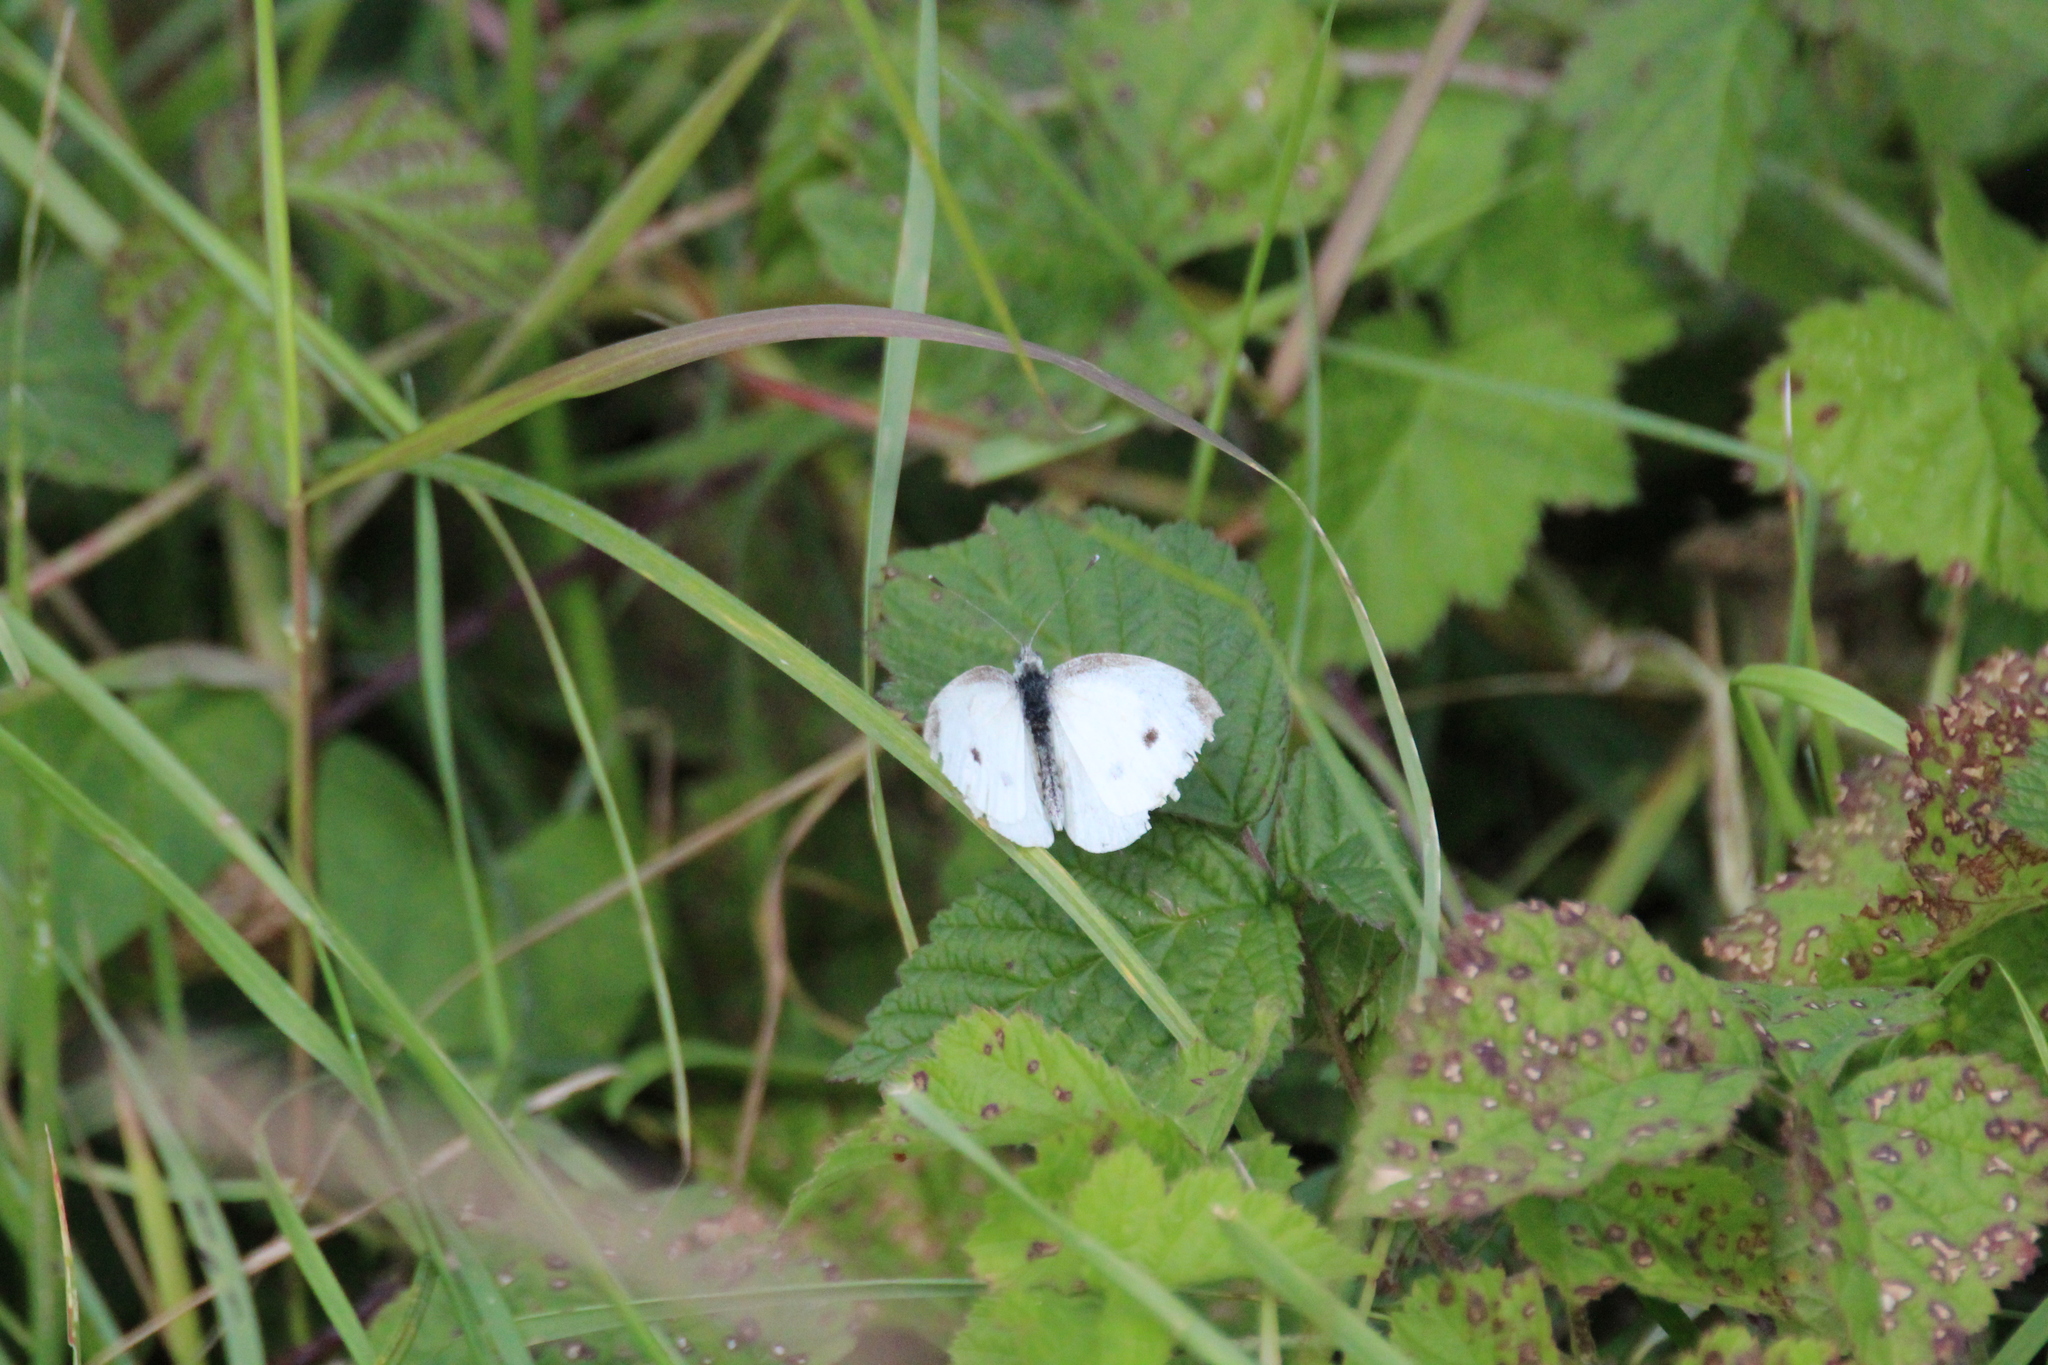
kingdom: Animalia
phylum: Arthropoda
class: Insecta
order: Lepidoptera
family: Pieridae
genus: Pieris
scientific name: Pieris rapae
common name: Small white
